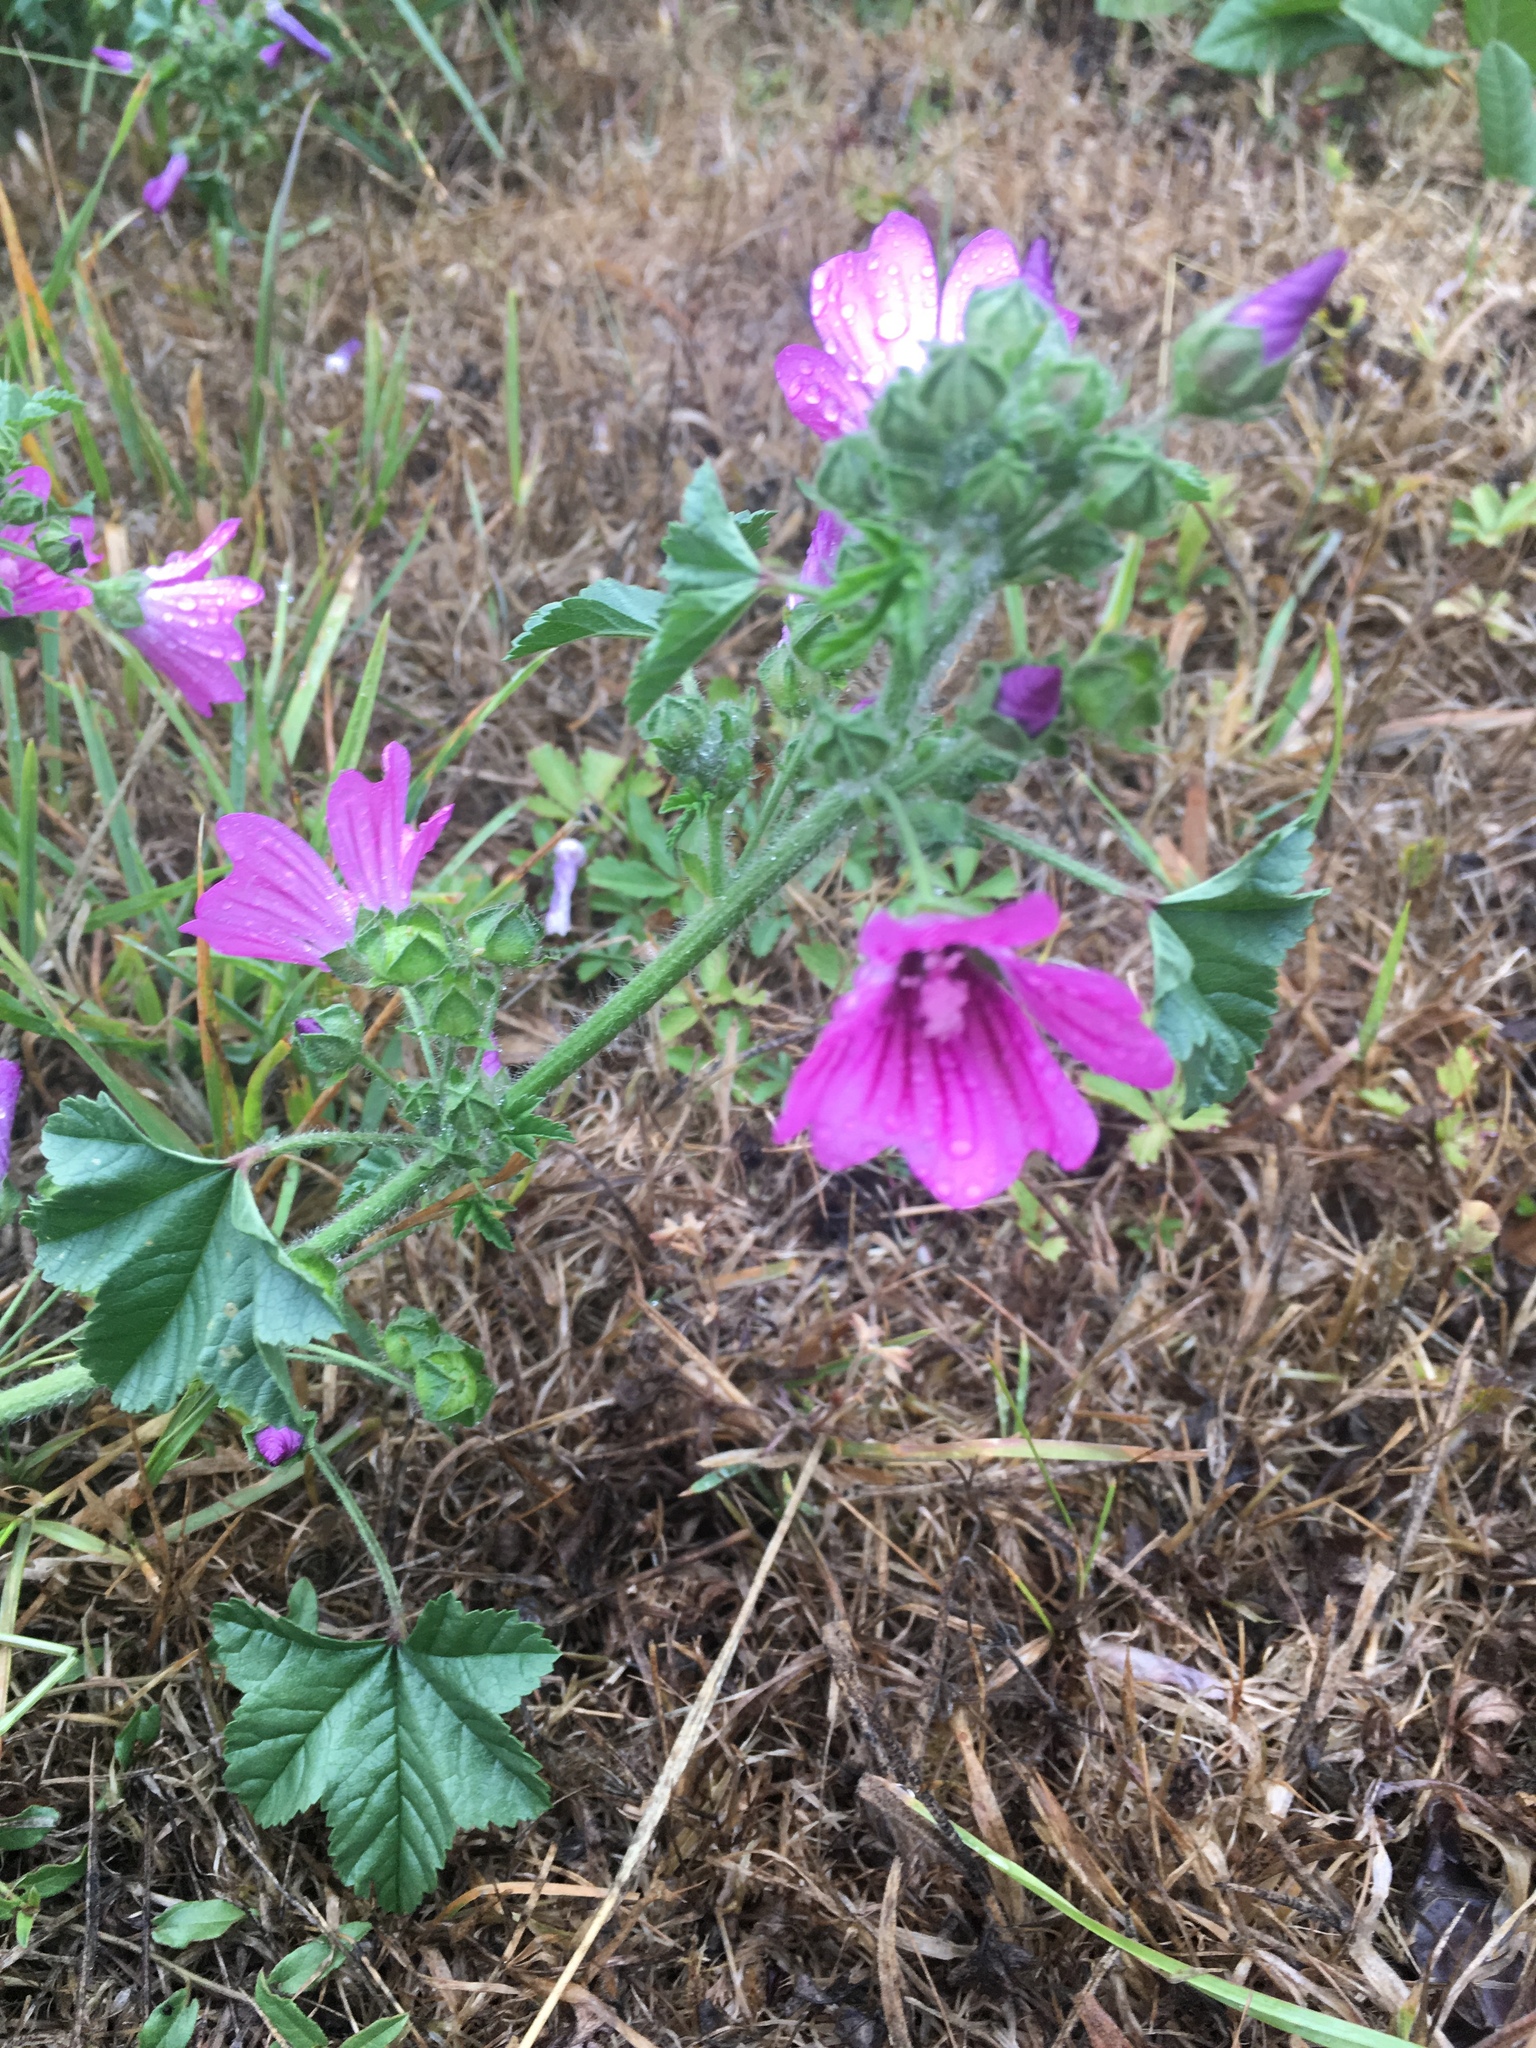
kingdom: Plantae
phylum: Tracheophyta
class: Magnoliopsida
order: Malvales
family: Malvaceae
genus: Malva
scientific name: Malva sylvestris
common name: Common mallow
